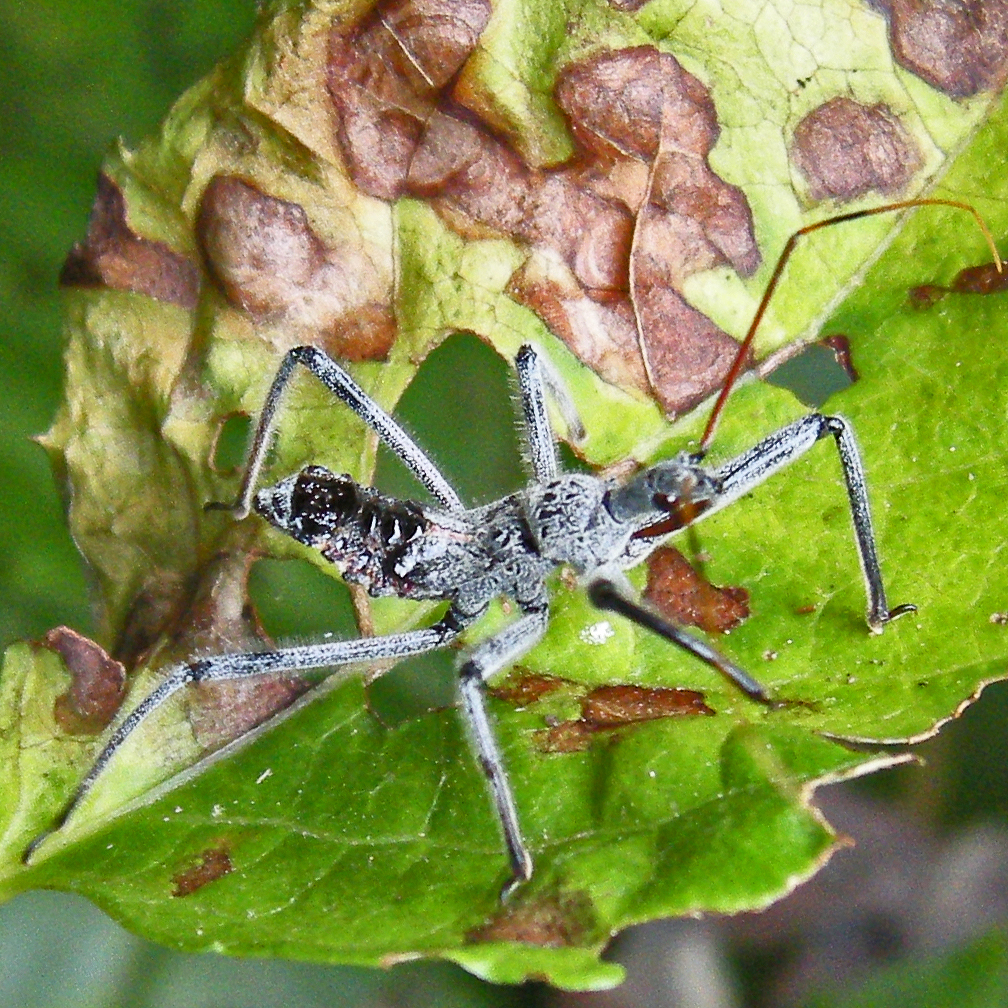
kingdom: Animalia
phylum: Arthropoda
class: Insecta
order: Hemiptera
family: Reduviidae
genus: Arilus
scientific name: Arilus cristatus
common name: North american wheel bug
